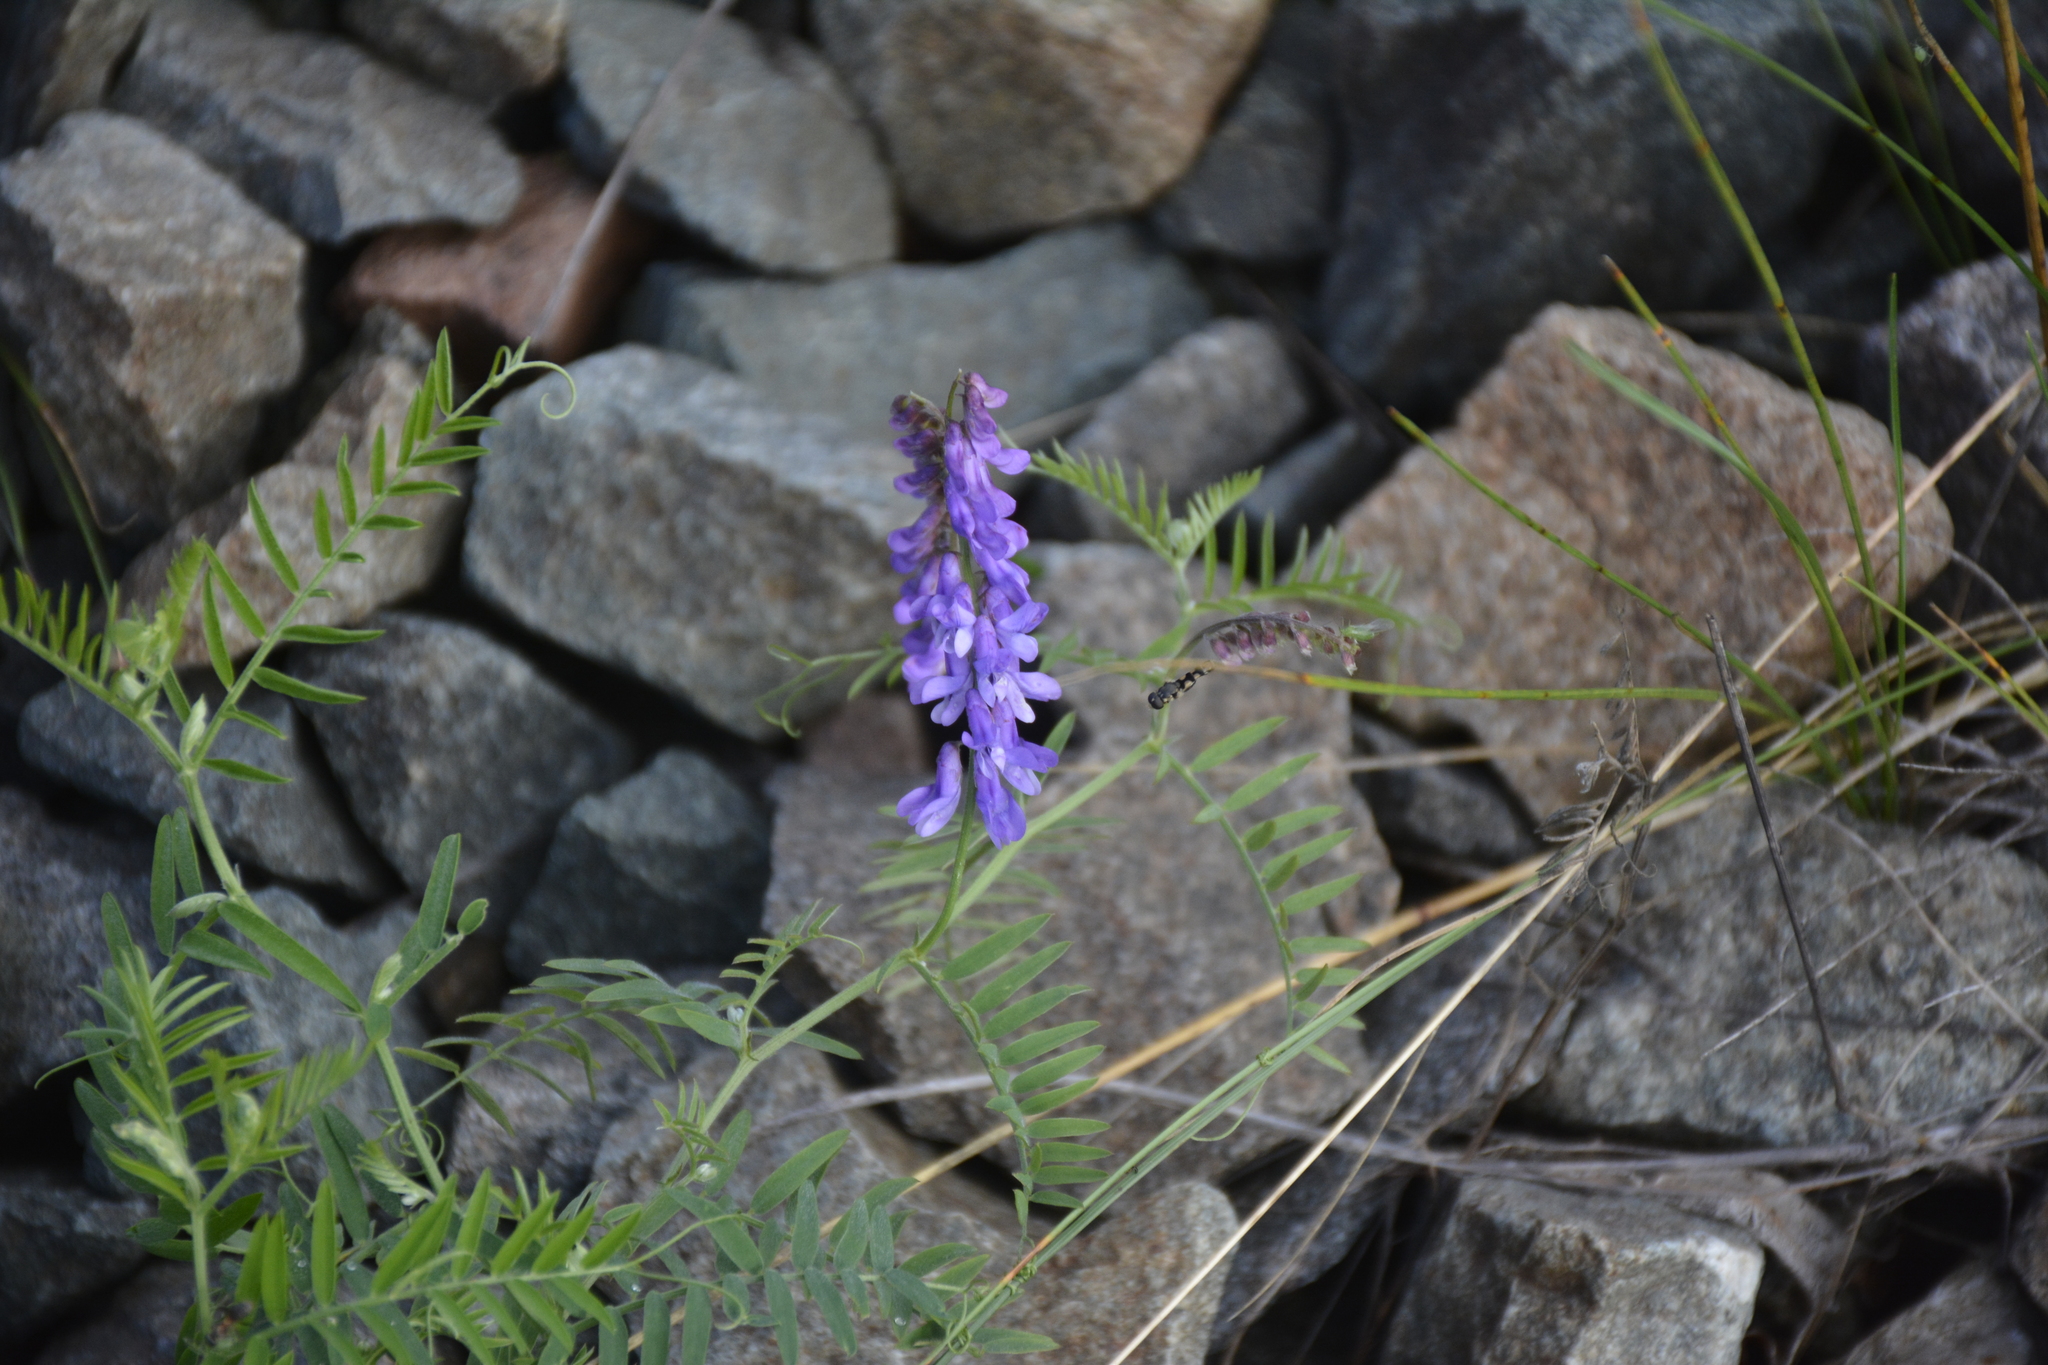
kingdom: Plantae
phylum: Tracheophyta
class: Magnoliopsida
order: Fabales
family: Fabaceae
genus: Vicia
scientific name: Vicia cracca
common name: Bird vetch
